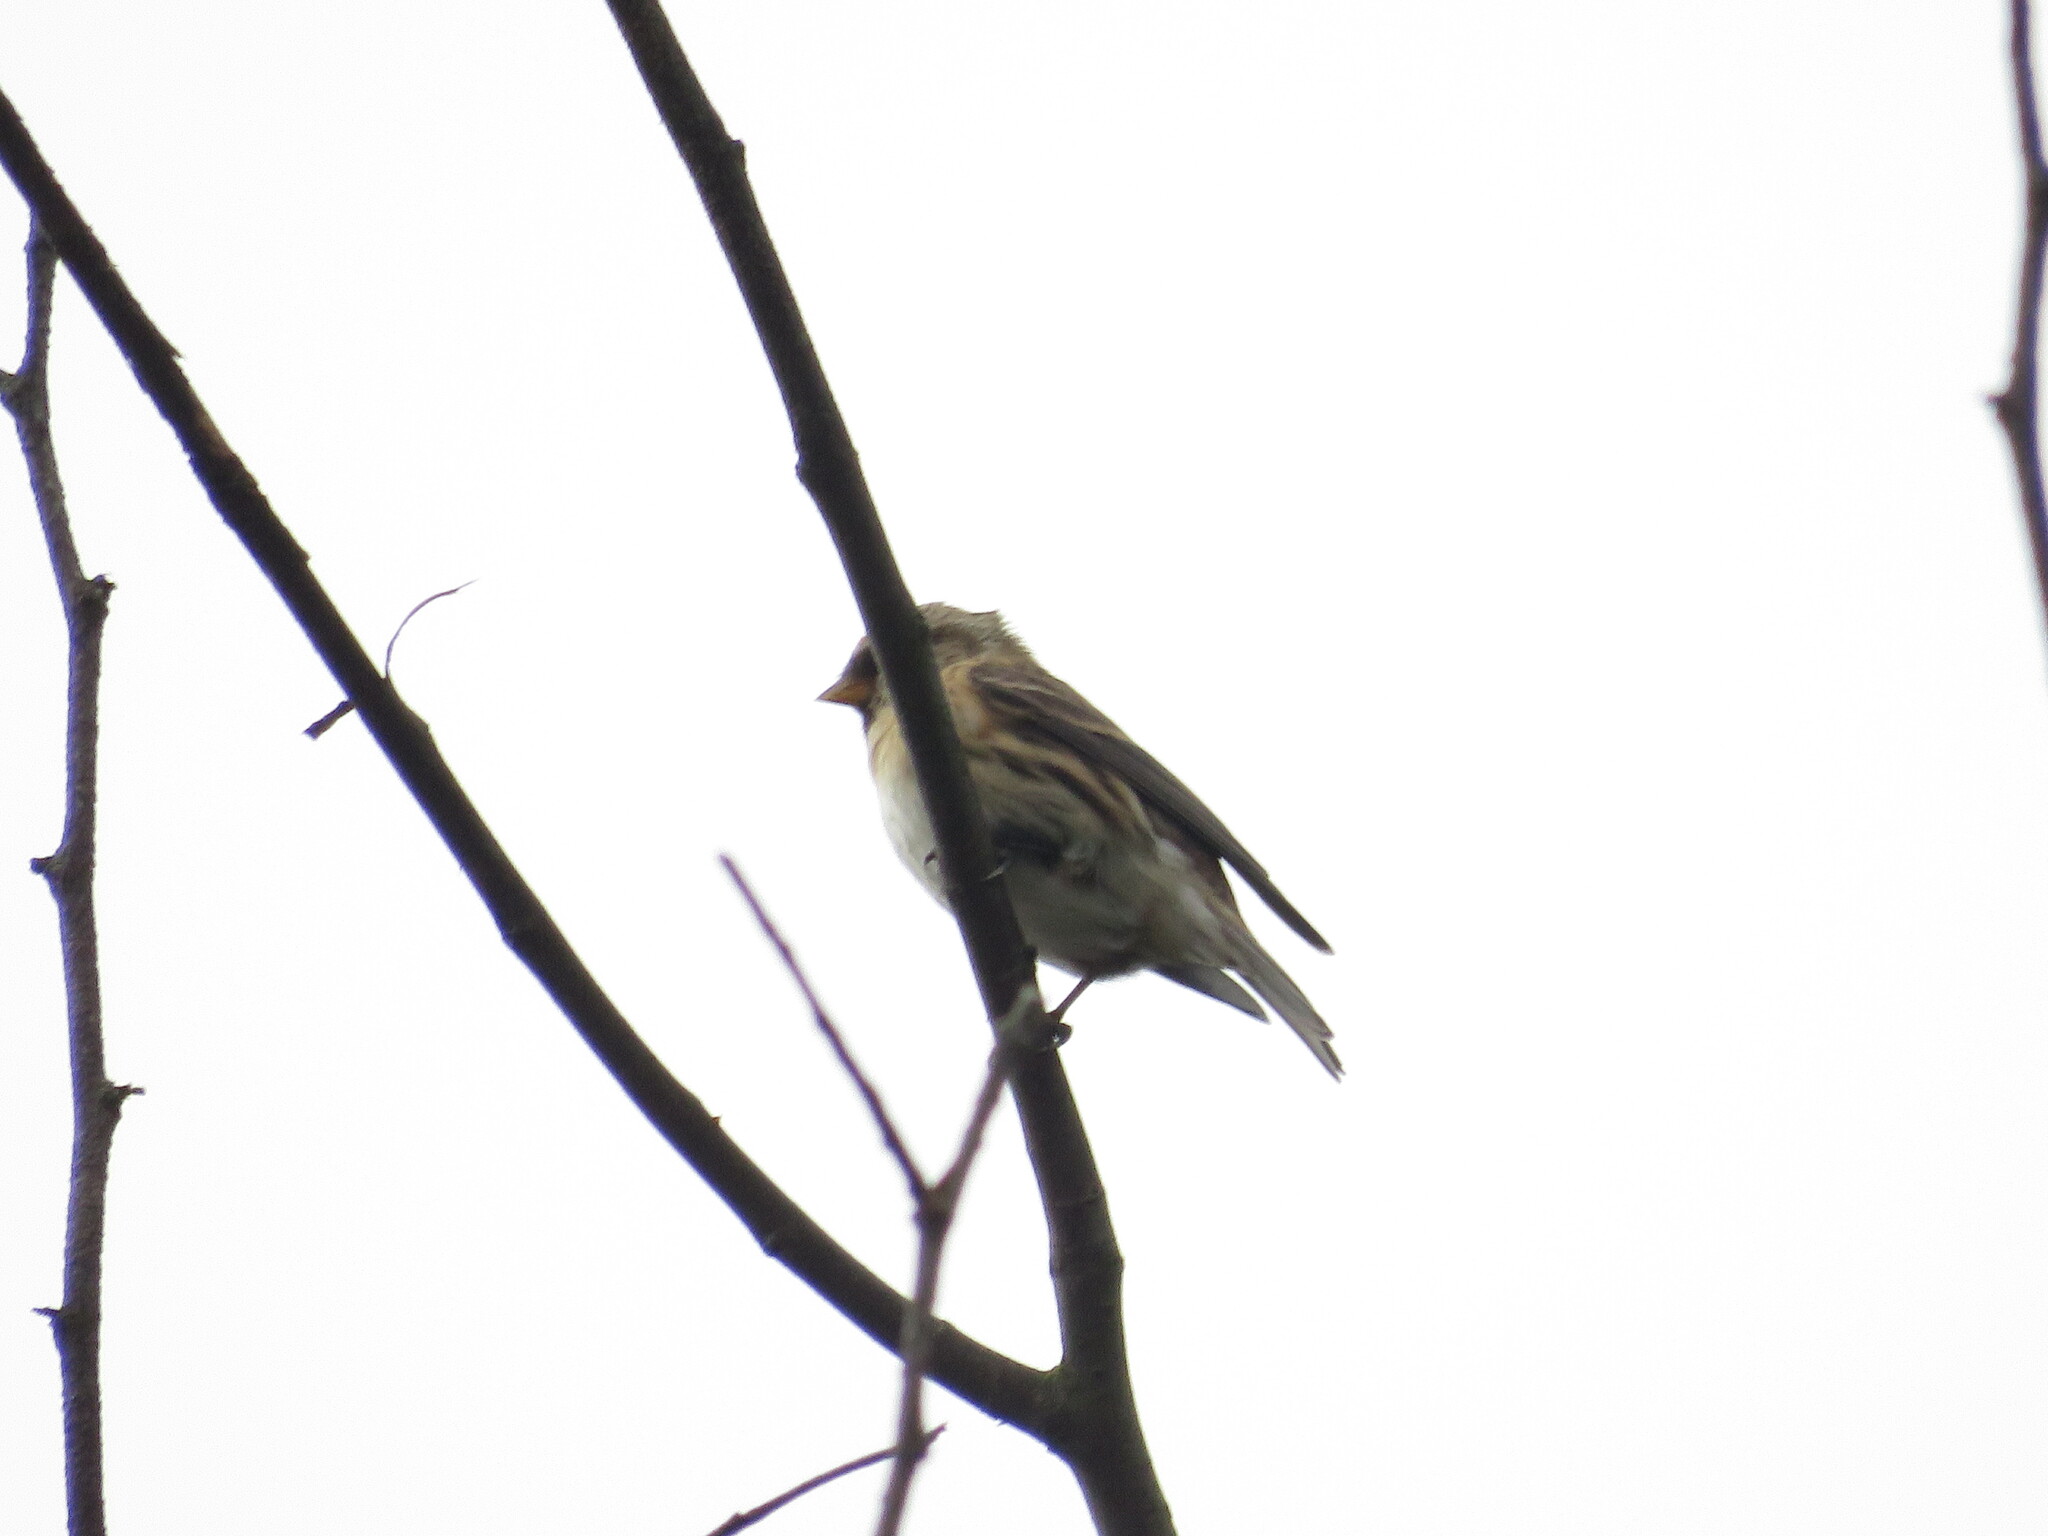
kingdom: Animalia
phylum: Chordata
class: Aves
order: Passeriformes
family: Fringillidae
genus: Acanthis
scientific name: Acanthis flammea
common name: Common redpoll
